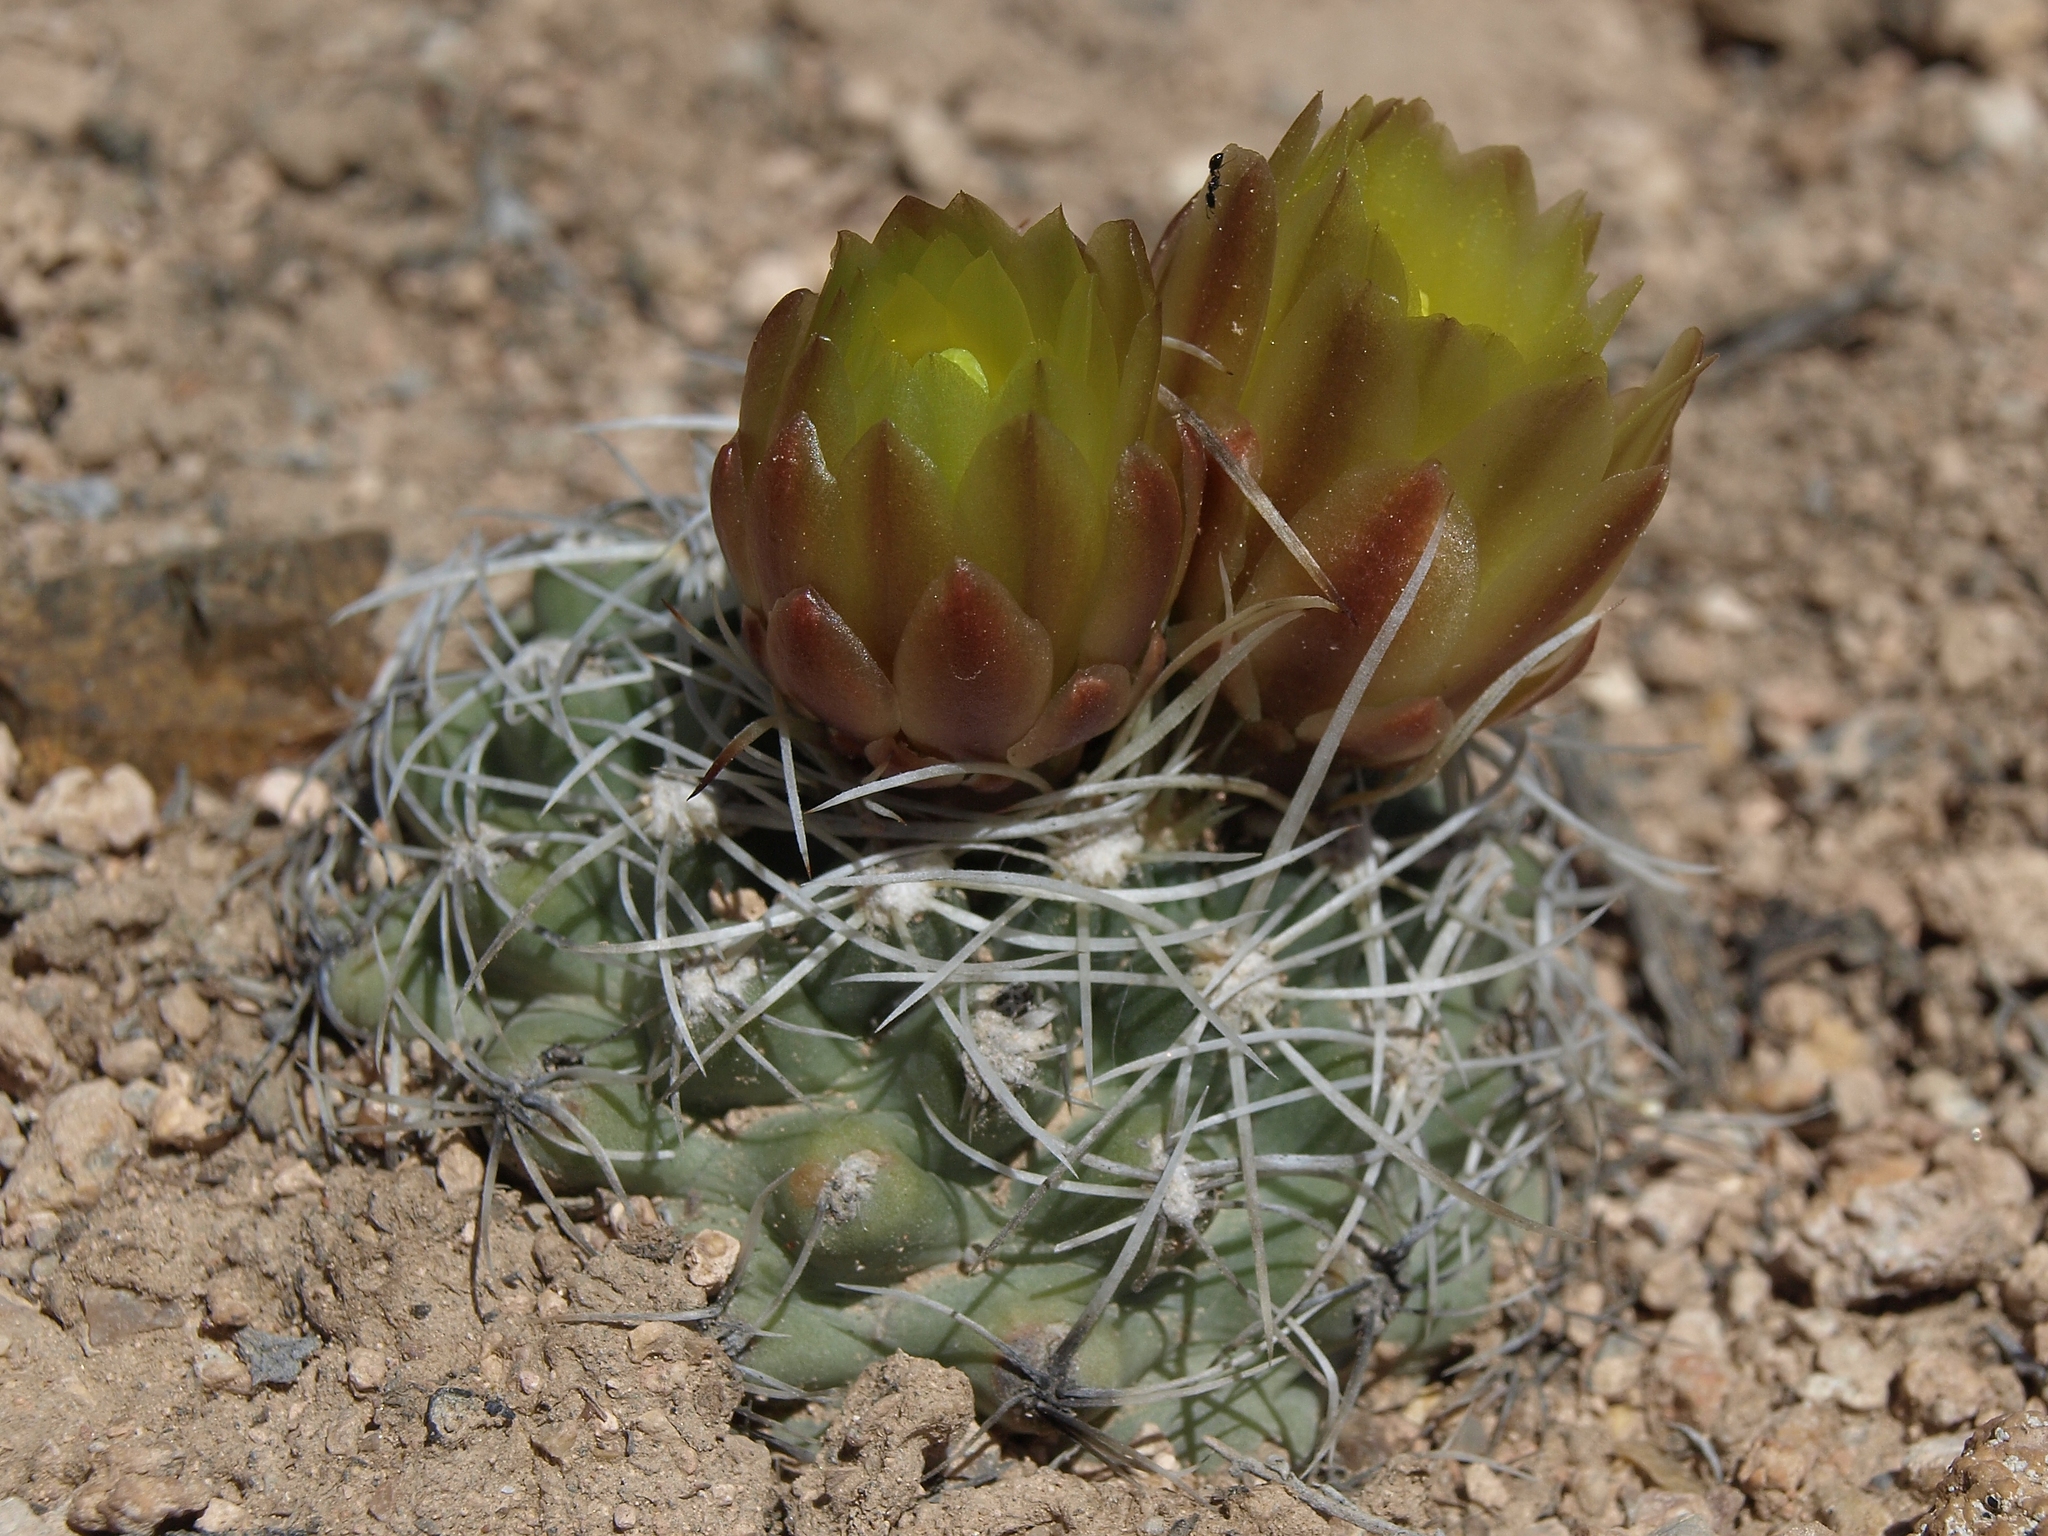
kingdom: Plantae
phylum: Tracheophyta
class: Magnoliopsida
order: Caryophyllales
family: Cactaceae
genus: Sclerocactus
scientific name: Sclerocactus pubispinus
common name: Great basin fishhook cactus
